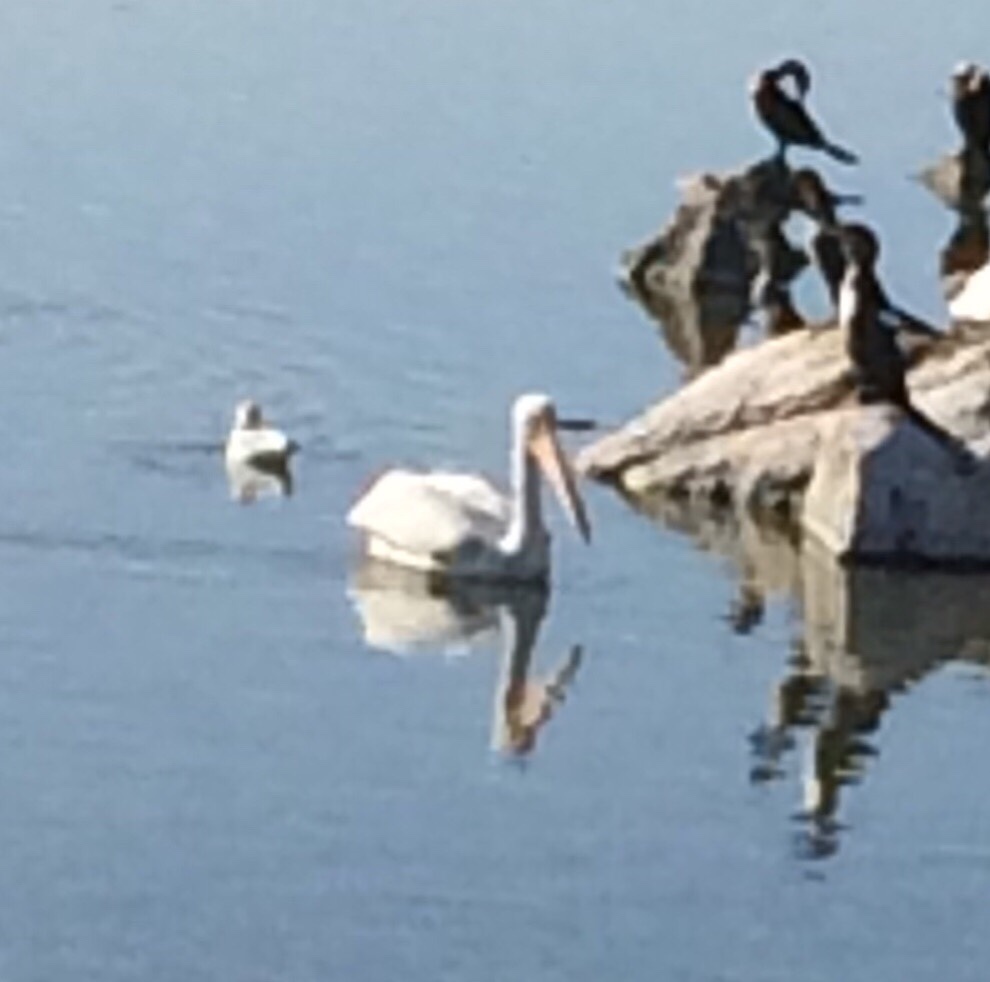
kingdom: Animalia
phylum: Chordata
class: Aves
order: Pelecaniformes
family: Pelecanidae
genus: Pelecanus
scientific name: Pelecanus erythrorhynchos
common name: American white pelican
